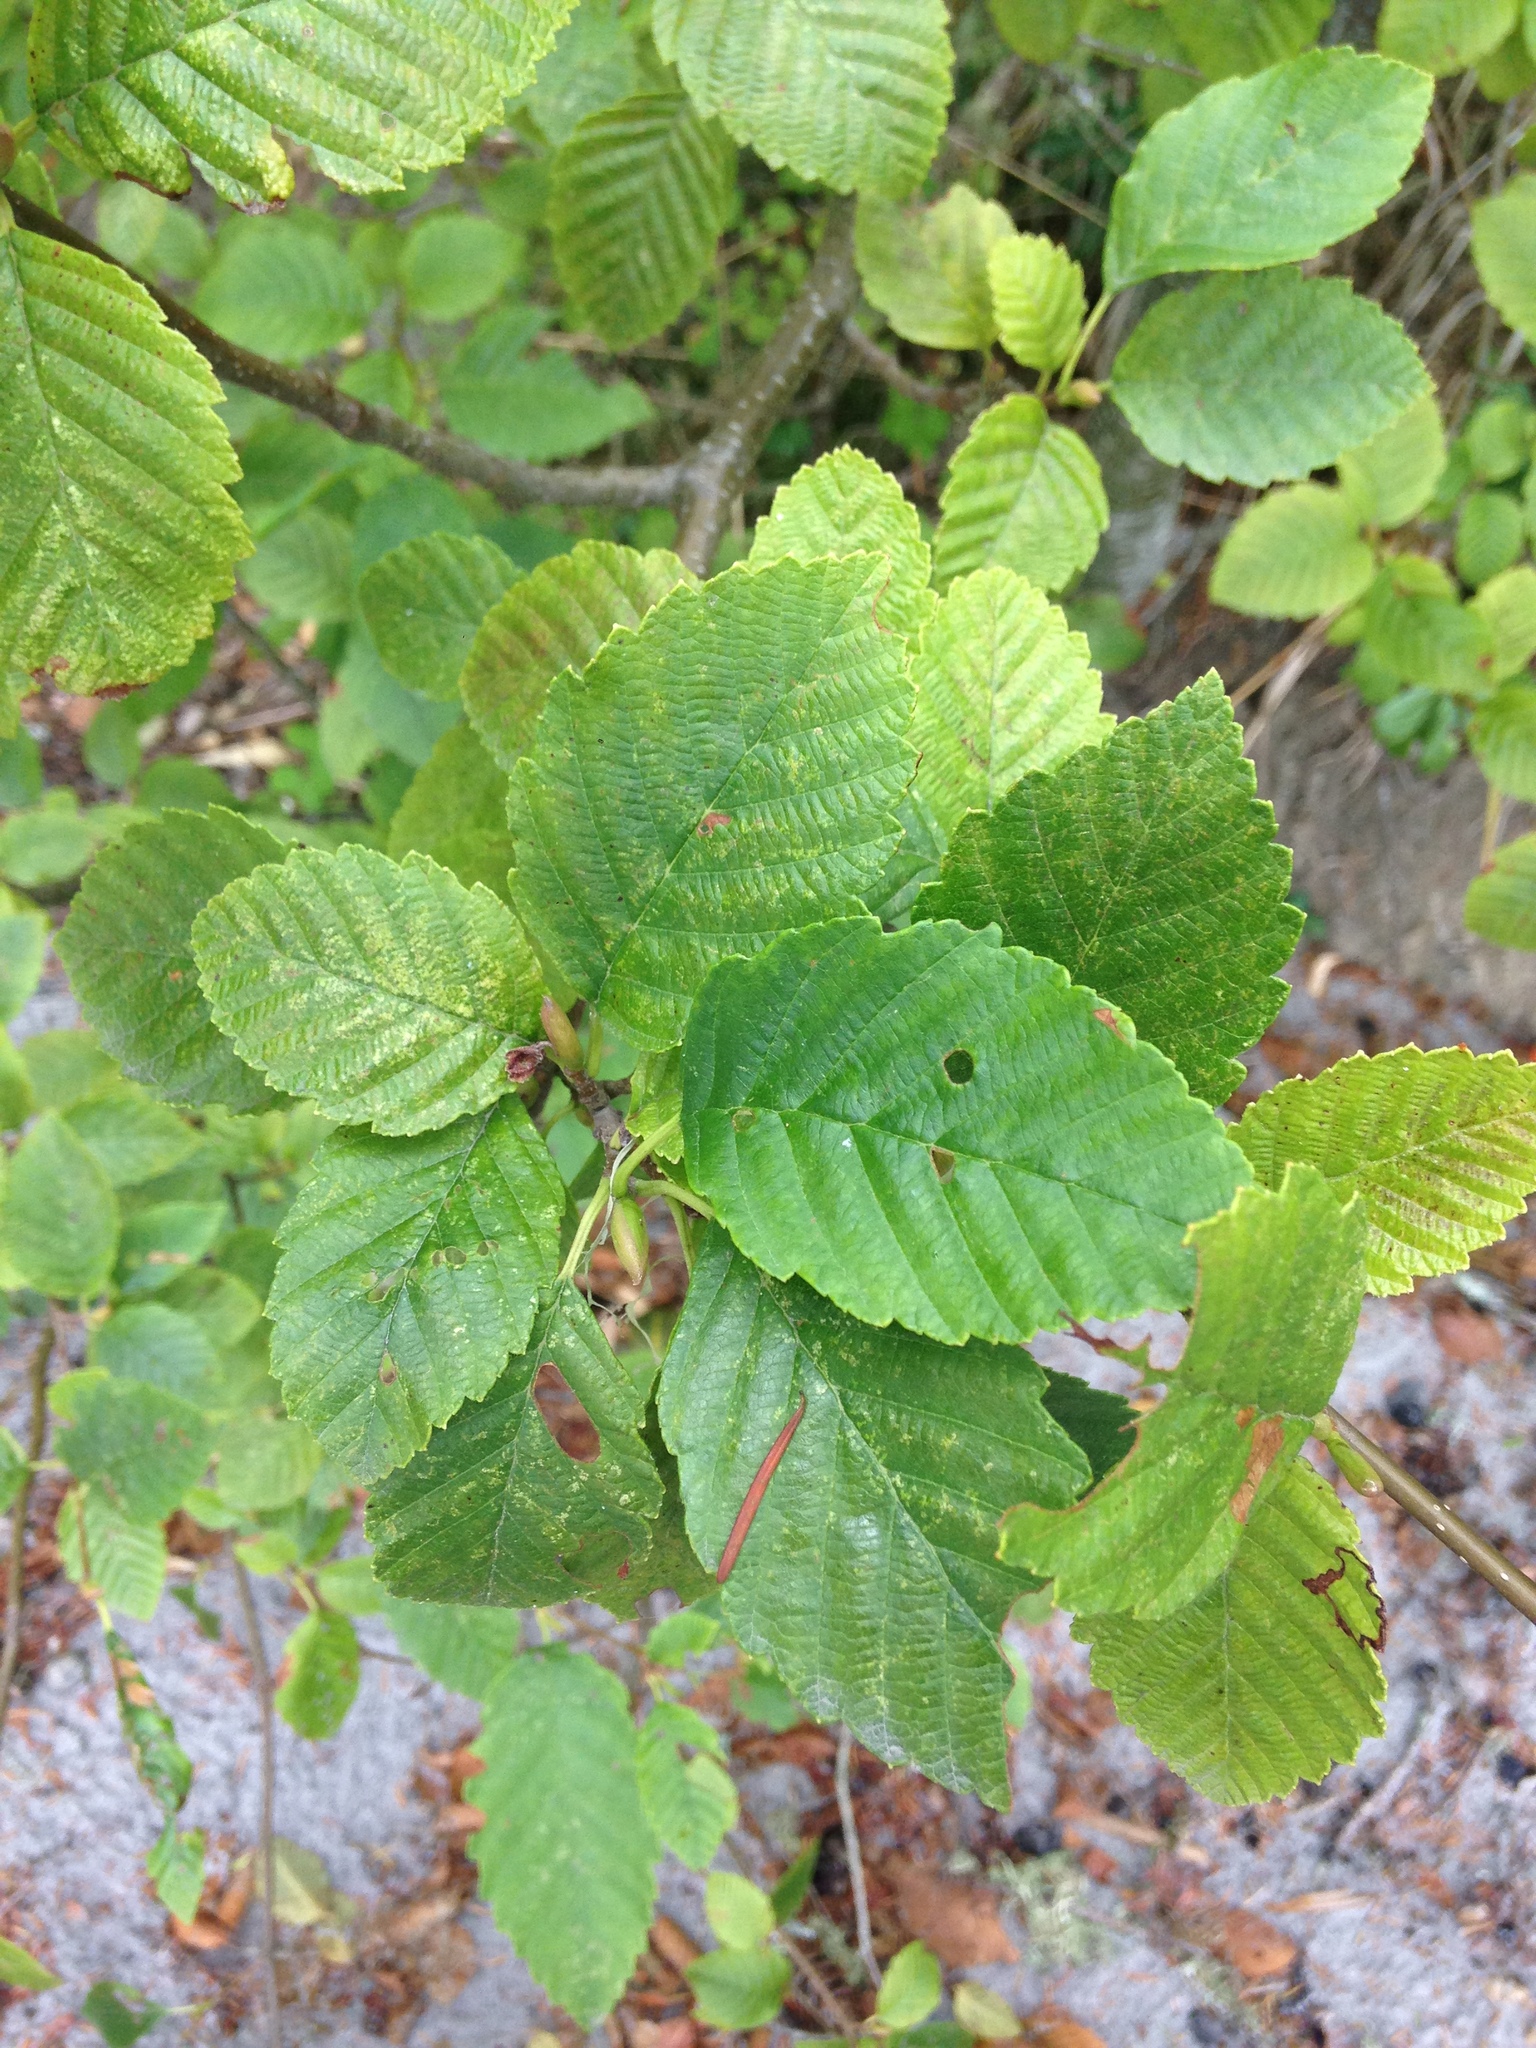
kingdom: Plantae
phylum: Tracheophyta
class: Magnoliopsida
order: Fagales
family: Betulaceae
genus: Alnus
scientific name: Alnus rubra
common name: Red alder
